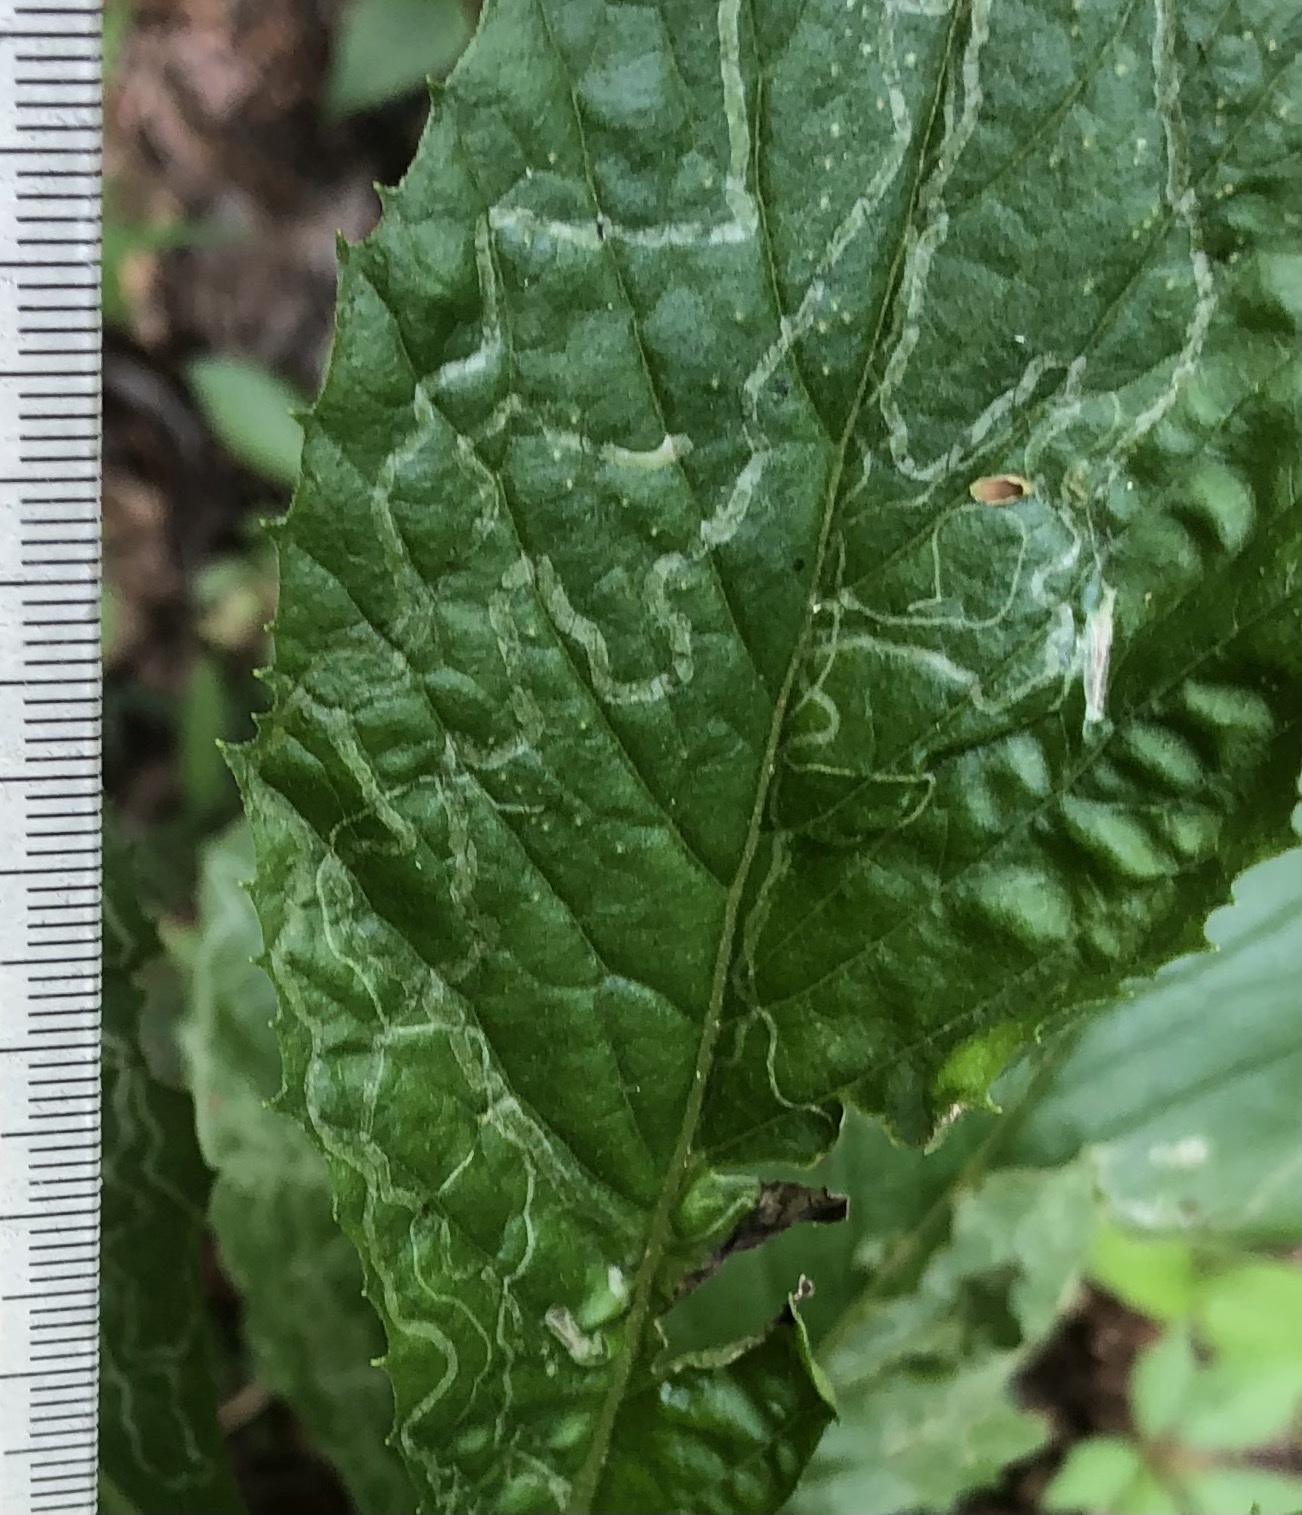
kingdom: Animalia
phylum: Arthropoda
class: Insecta
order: Lepidoptera
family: Gracillariidae
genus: Phyllocnistis
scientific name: Phyllocnistis insignis
